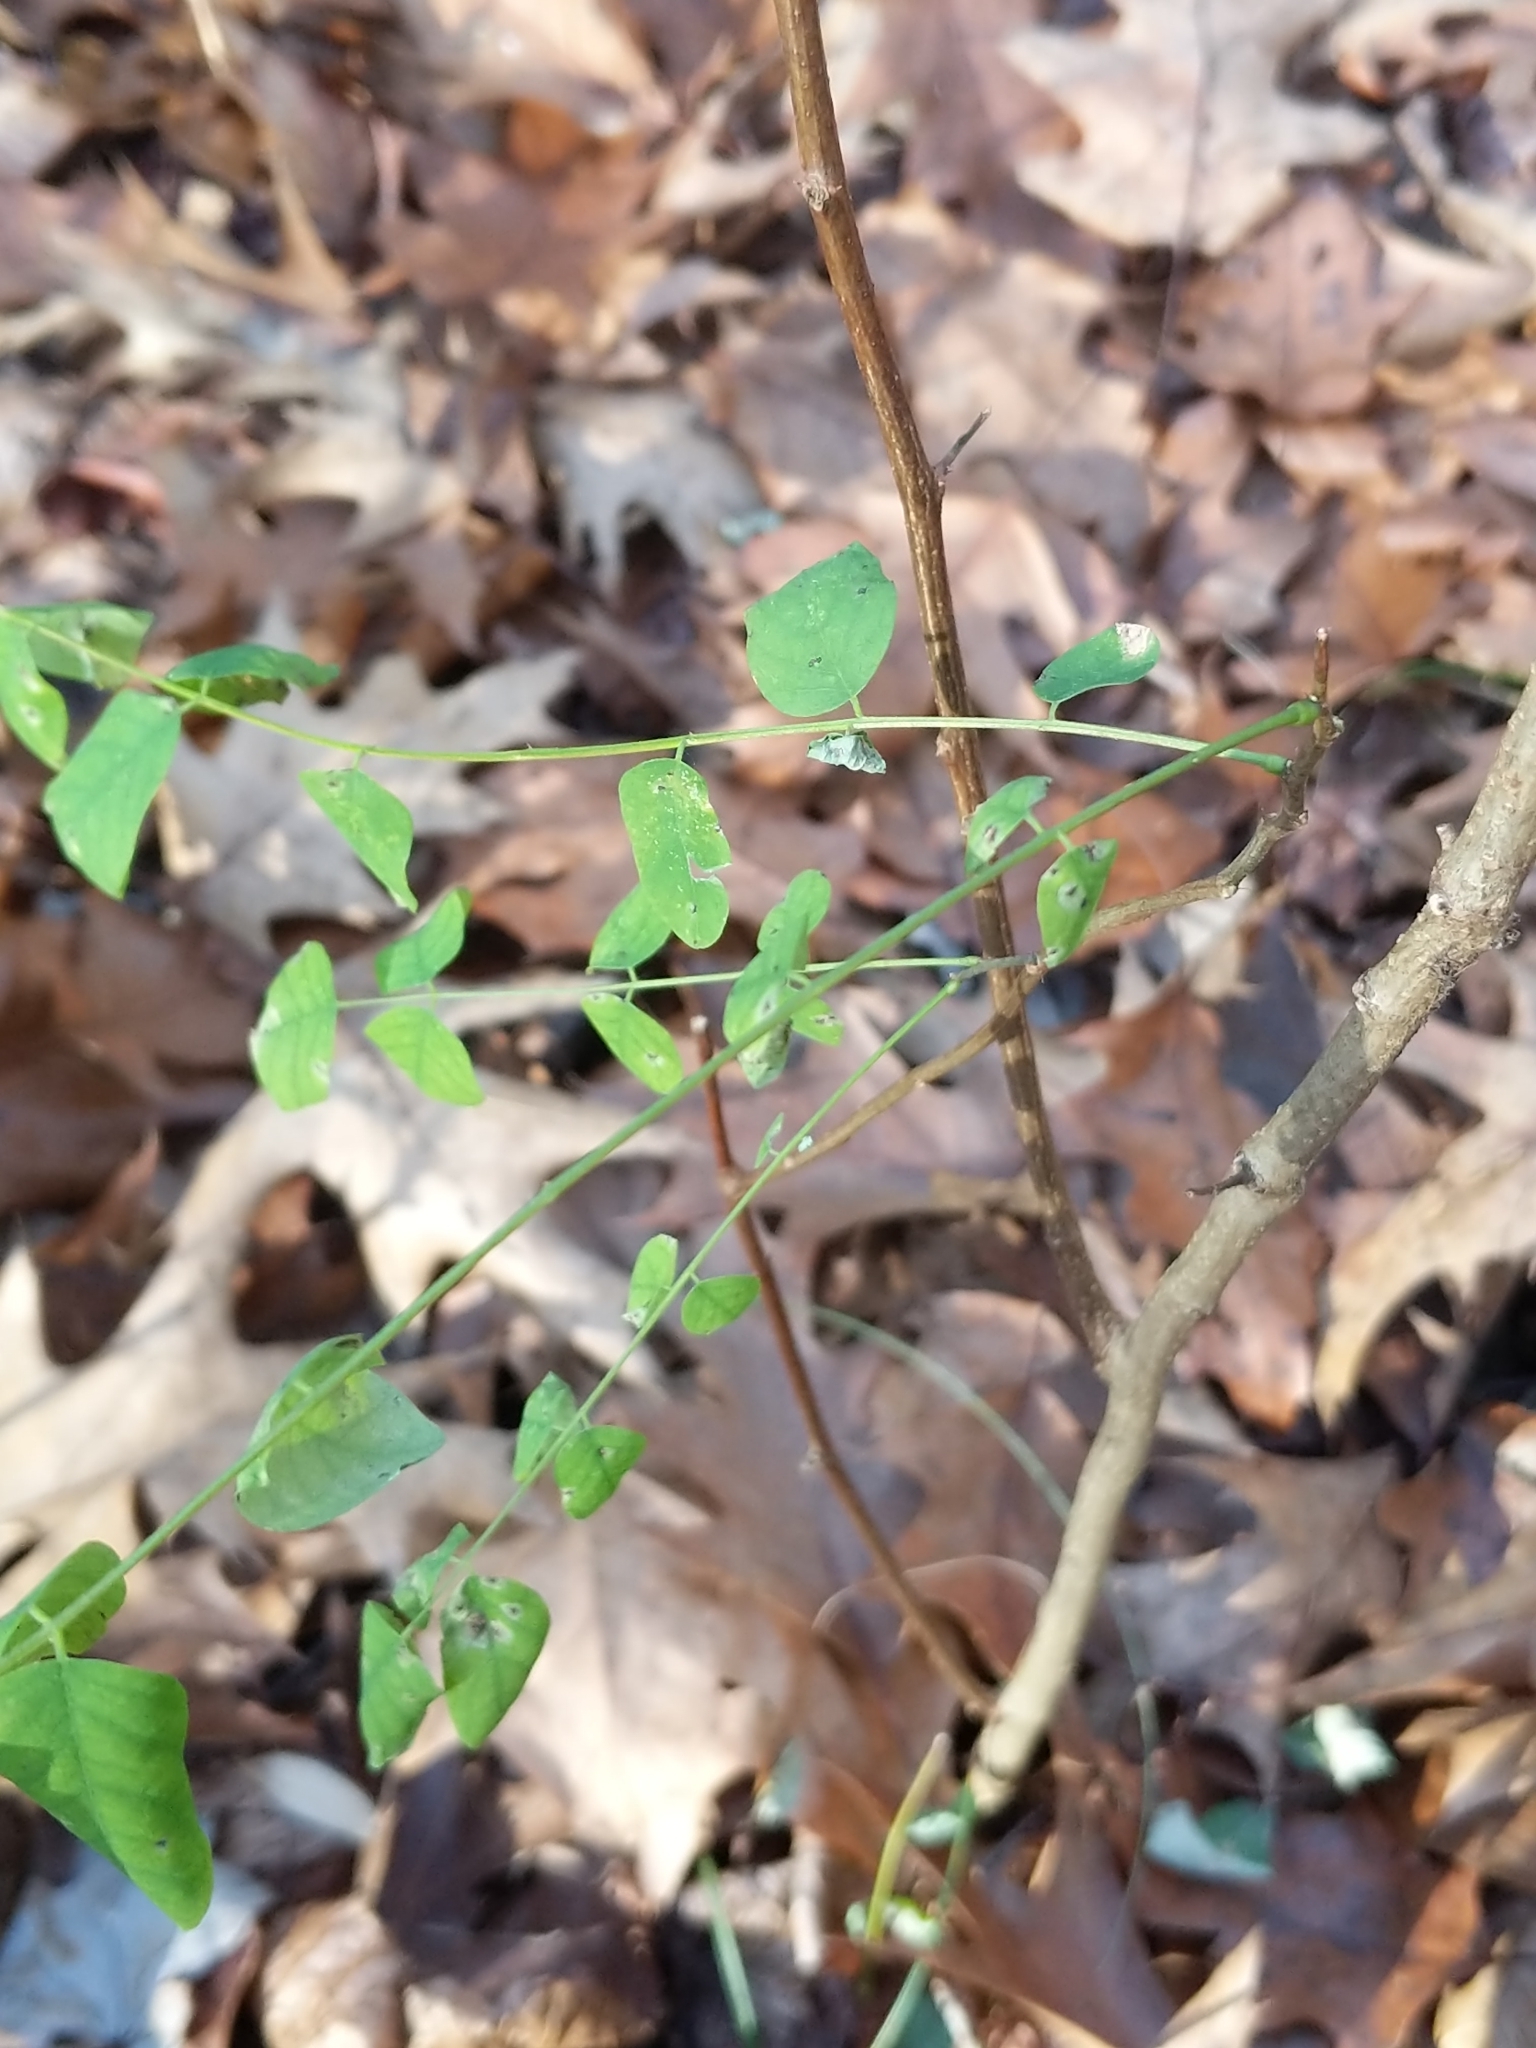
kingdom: Plantae
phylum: Tracheophyta
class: Magnoliopsida
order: Fabales
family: Fabaceae
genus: Robinia
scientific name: Robinia pseudoacacia
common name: Black locust
